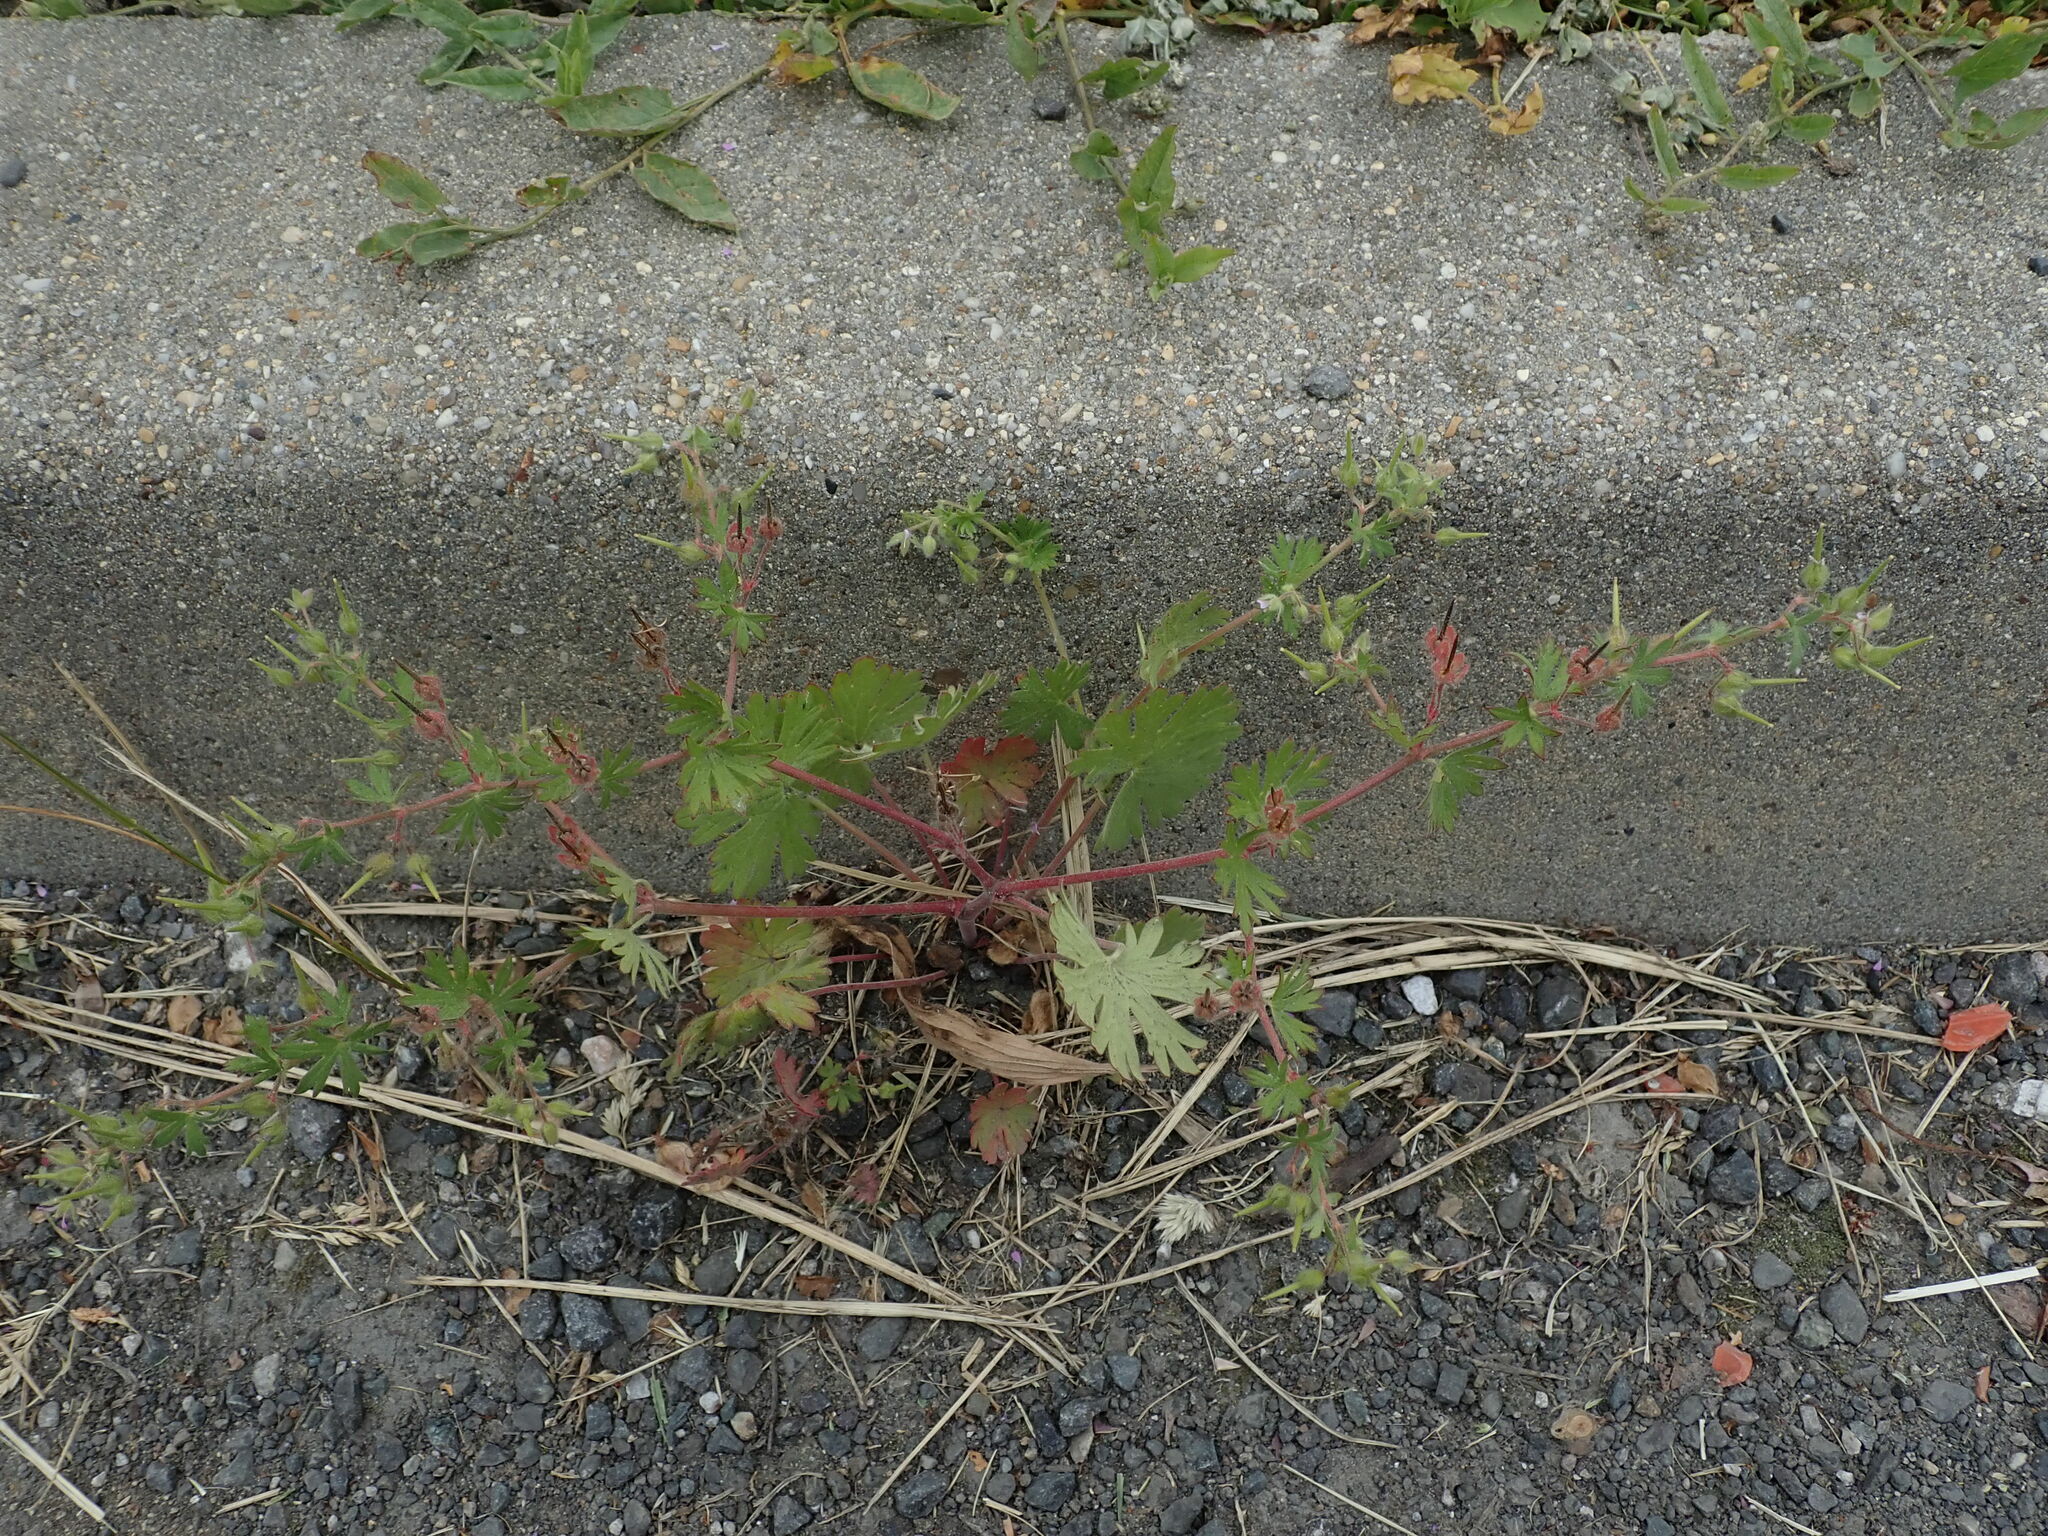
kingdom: Plantae
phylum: Tracheophyta
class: Magnoliopsida
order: Geraniales
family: Geraniaceae
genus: Geranium
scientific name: Geranium pusillum
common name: Small geranium
